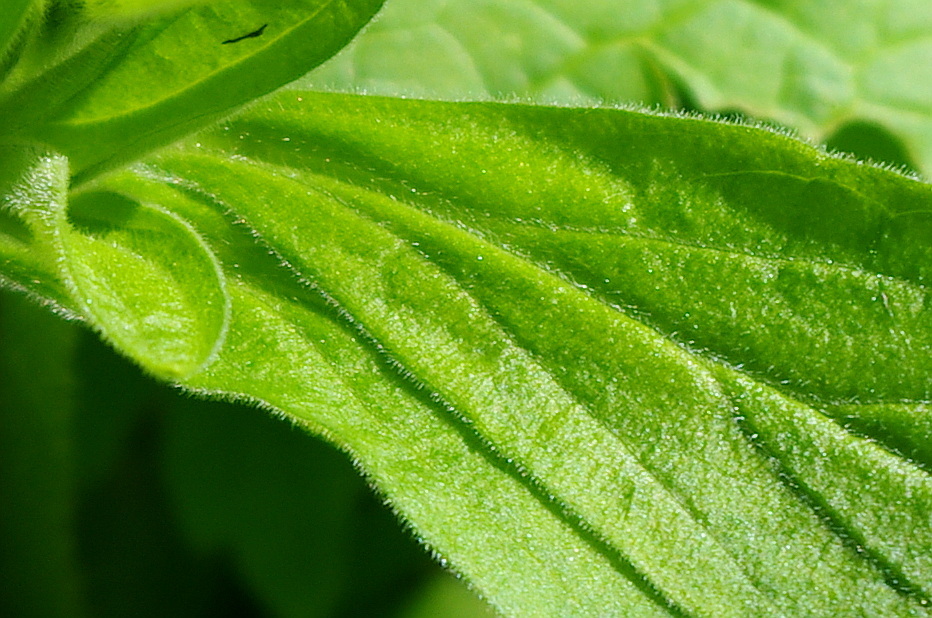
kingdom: Plantae
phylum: Tracheophyta
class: Magnoliopsida
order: Caryophyllales
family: Caryophyllaceae
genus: Silene
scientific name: Silene latifolia
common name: White campion
